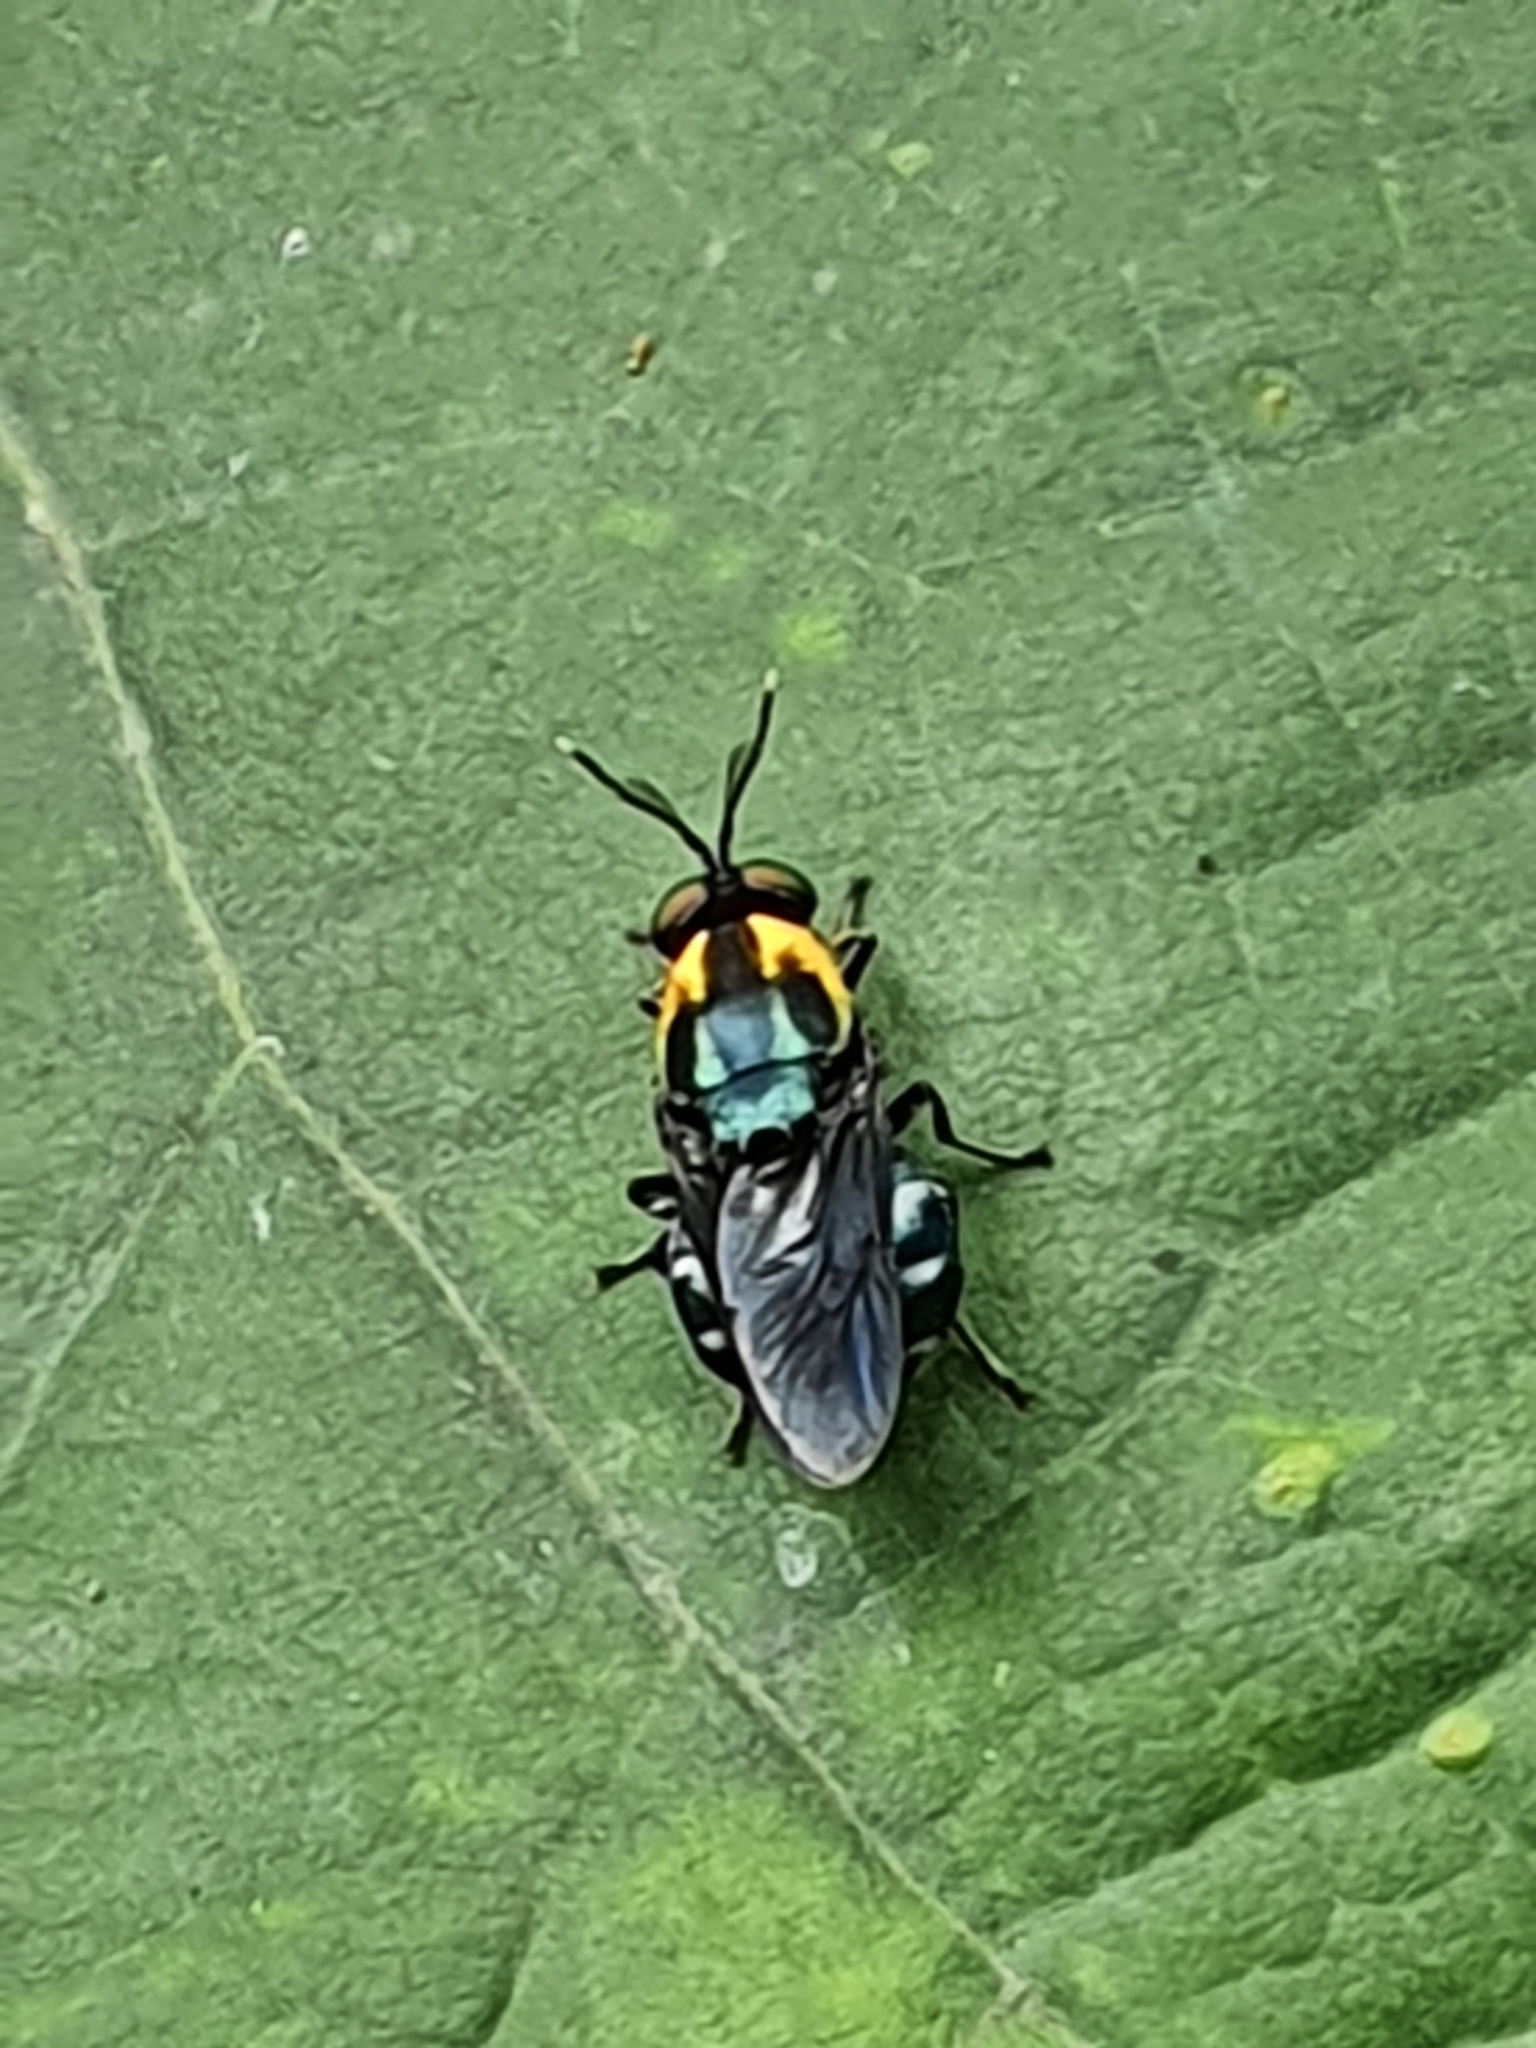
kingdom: Animalia
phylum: Arthropoda
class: Insecta
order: Diptera
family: Stratiomyidae
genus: Ptilocera
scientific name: Ptilocera quadridentata
